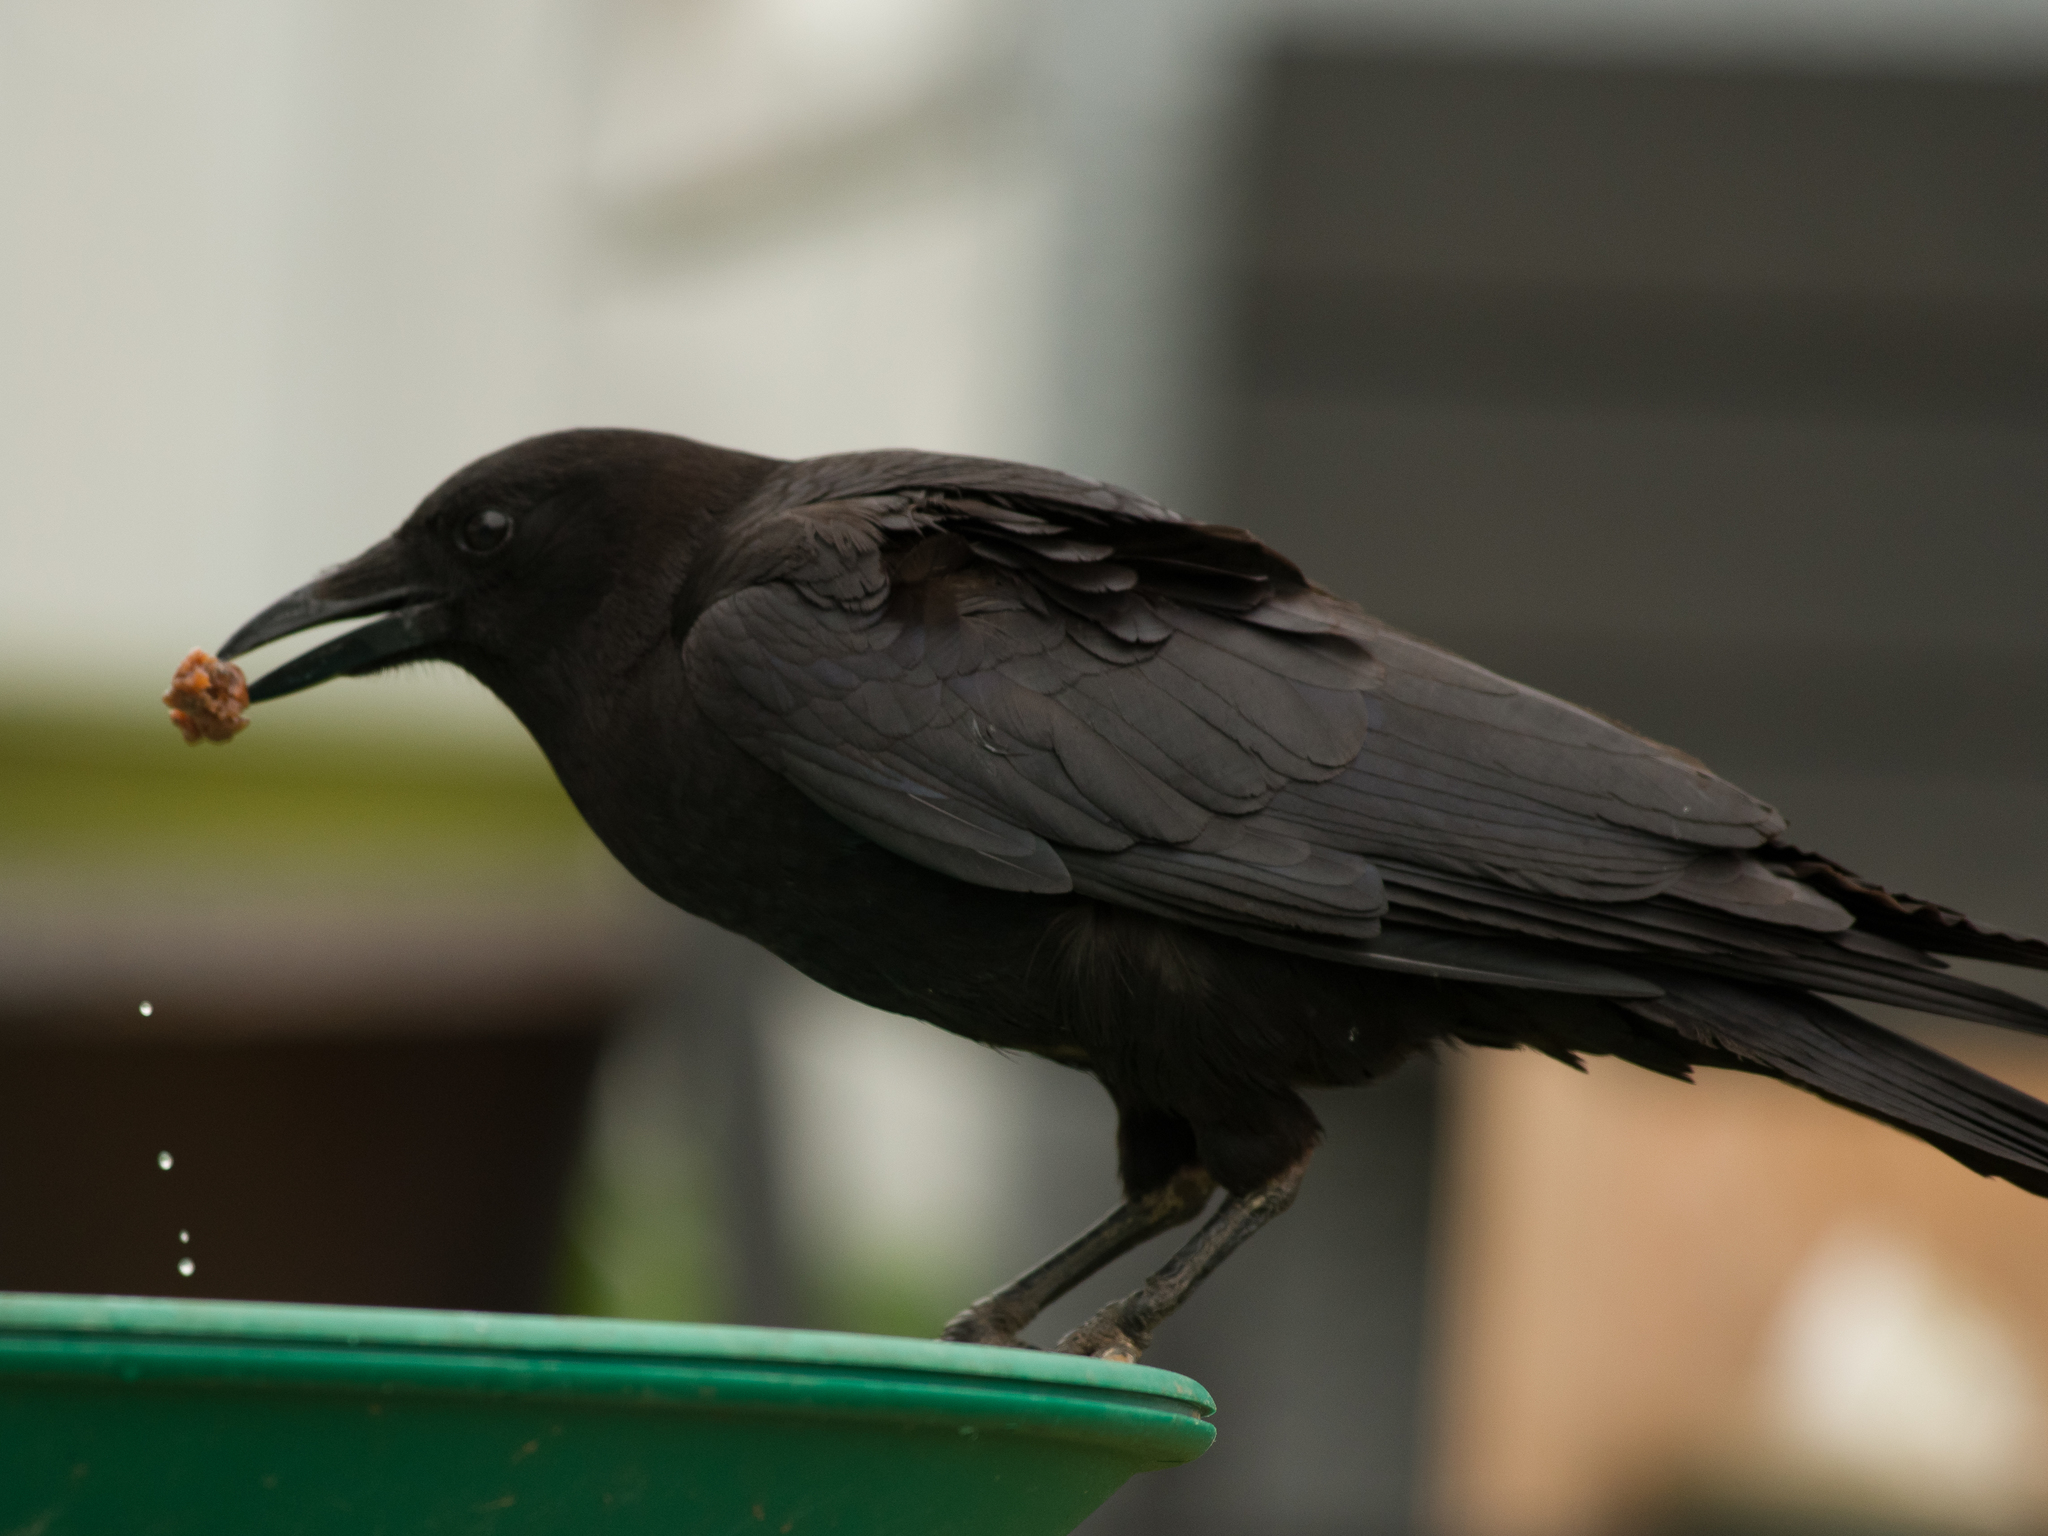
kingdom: Animalia
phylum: Chordata
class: Aves
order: Passeriformes
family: Corvidae
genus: Corvus
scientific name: Corvus brachyrhynchos
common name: American crow
